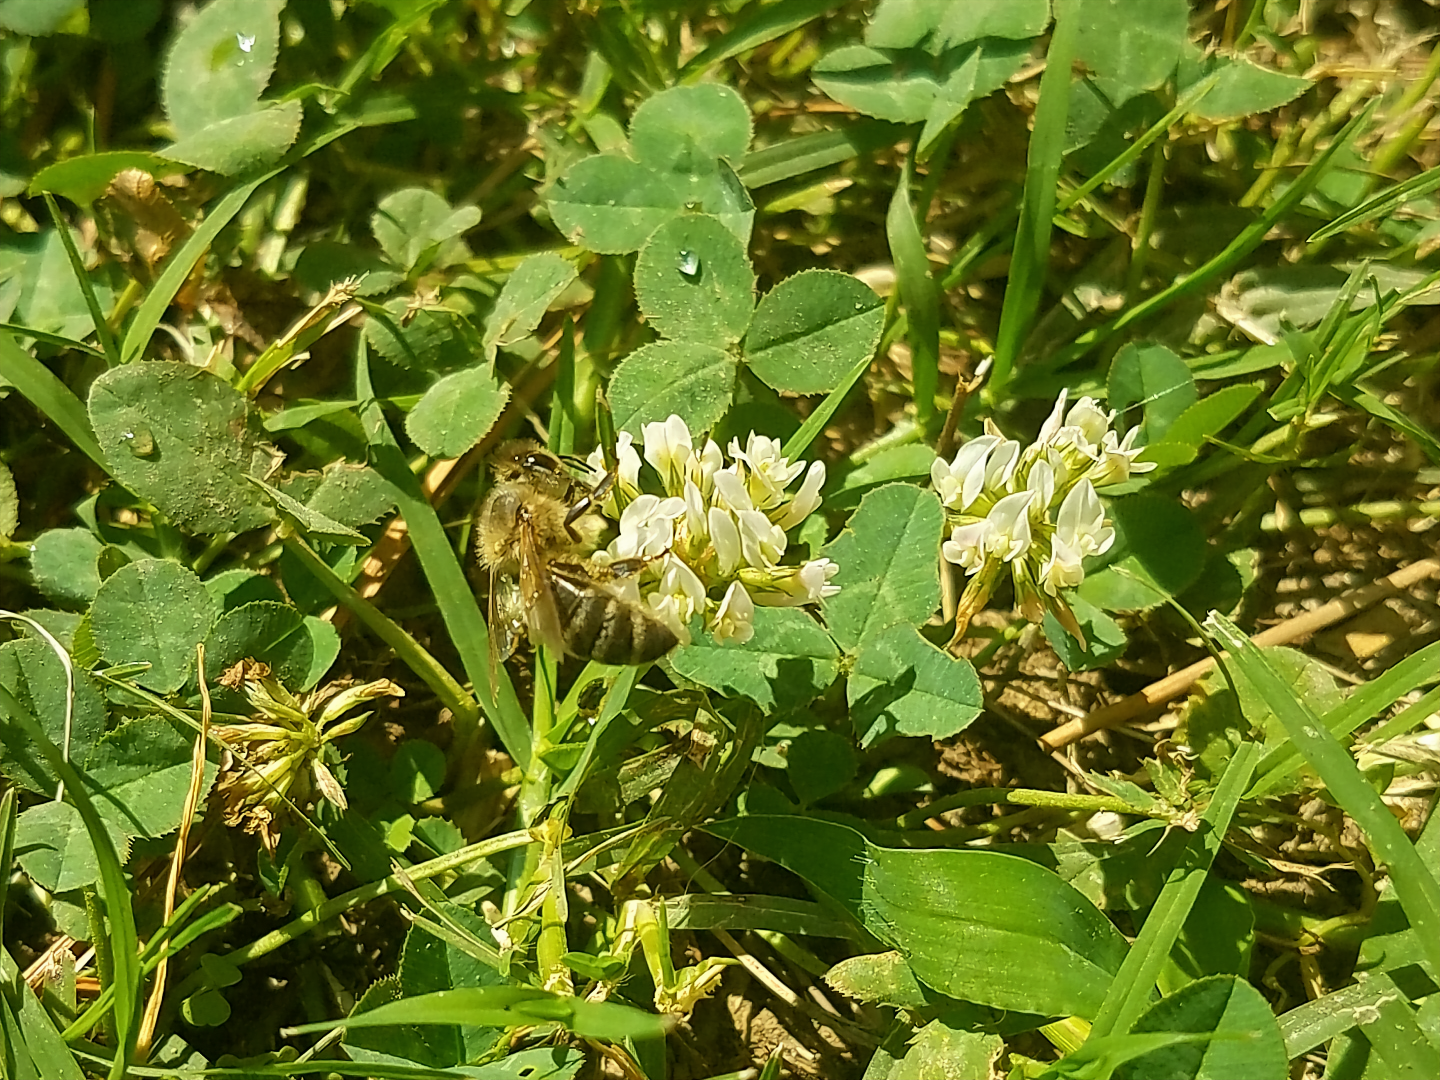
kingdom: Animalia
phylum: Arthropoda
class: Insecta
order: Hymenoptera
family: Apidae
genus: Apis
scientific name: Apis mellifera
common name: Honey bee
